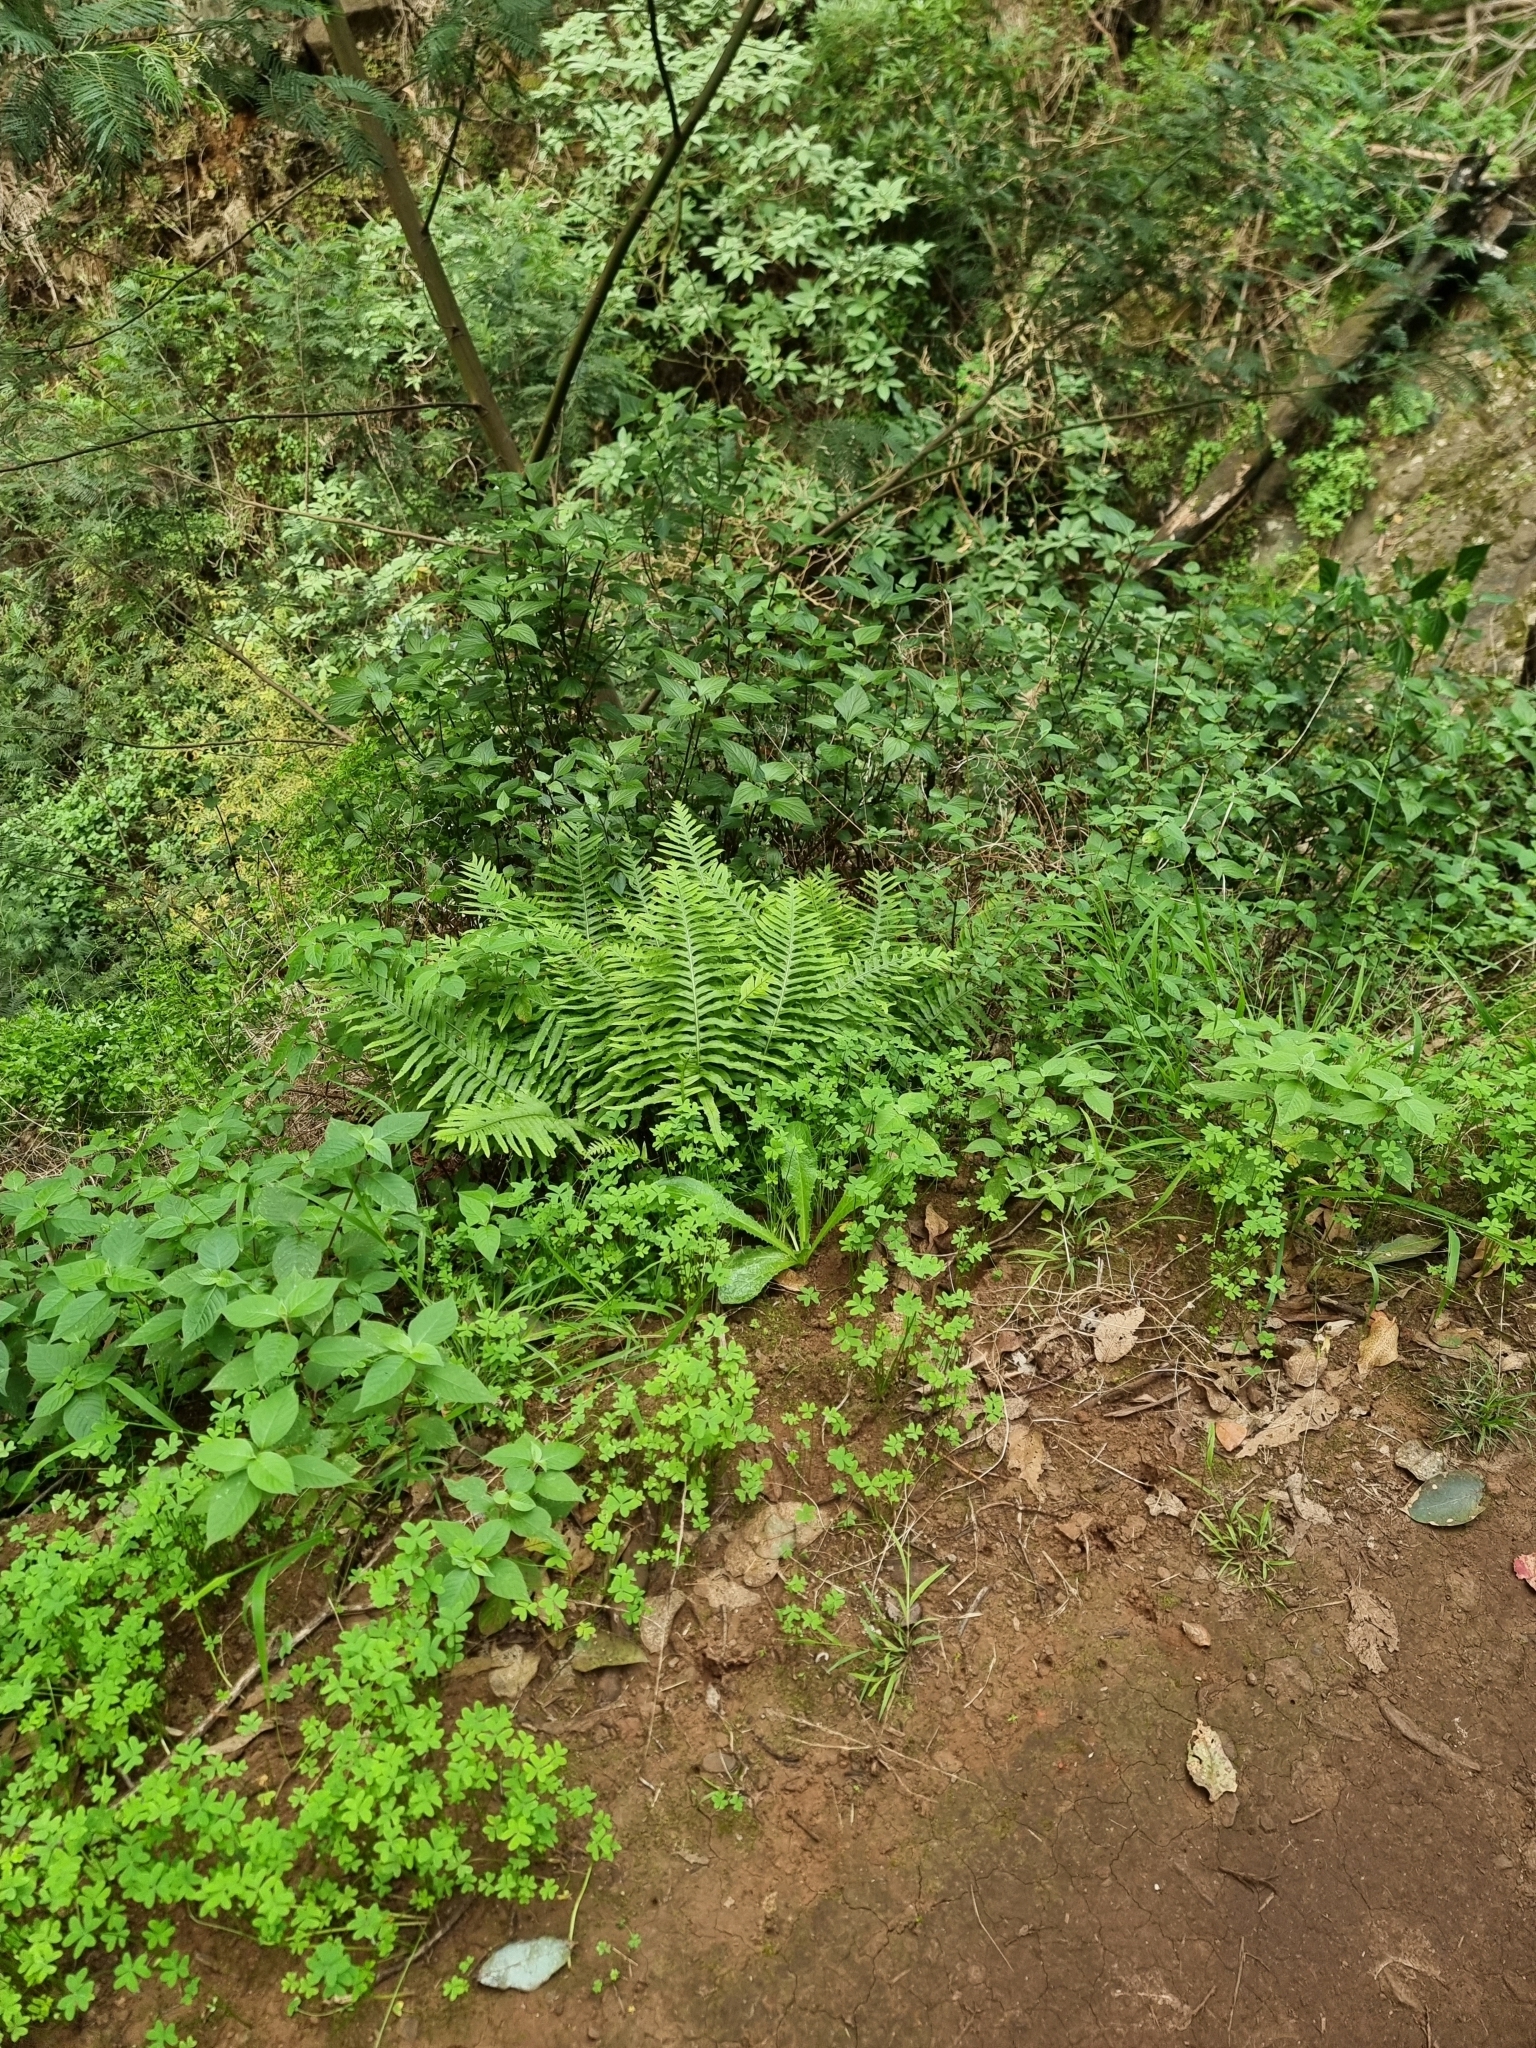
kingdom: Plantae
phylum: Tracheophyta
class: Polypodiopsida
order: Polypodiales
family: Polypodiaceae
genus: Polypodium
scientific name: Polypodium macaronesicum
